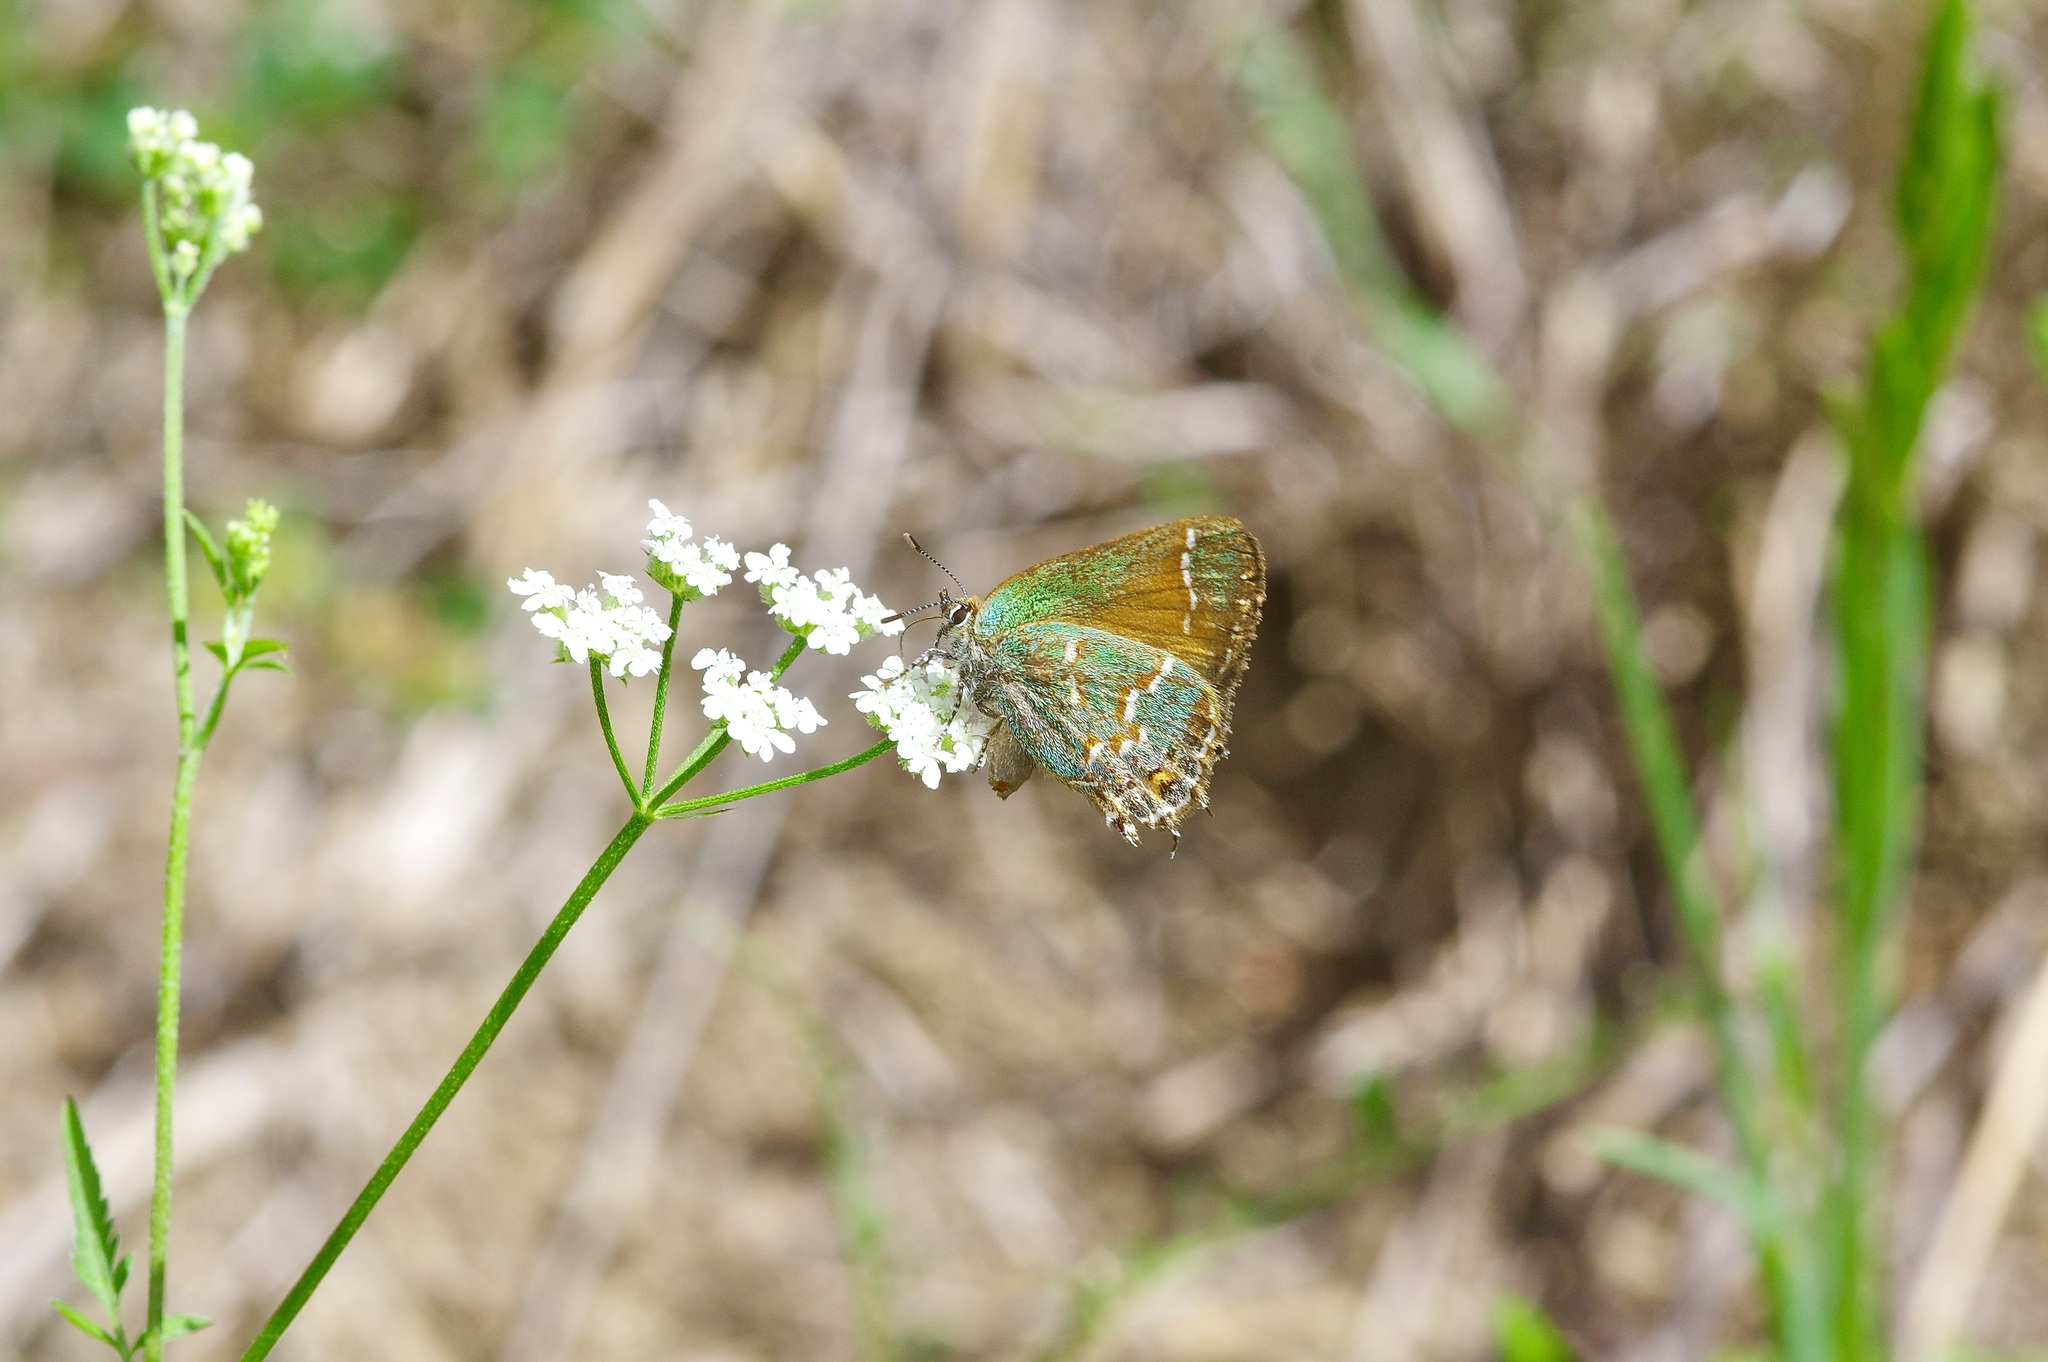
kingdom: Animalia
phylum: Arthropoda
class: Insecta
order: Lepidoptera
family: Lycaenidae
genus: Mitoura
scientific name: Mitoura gryneus
